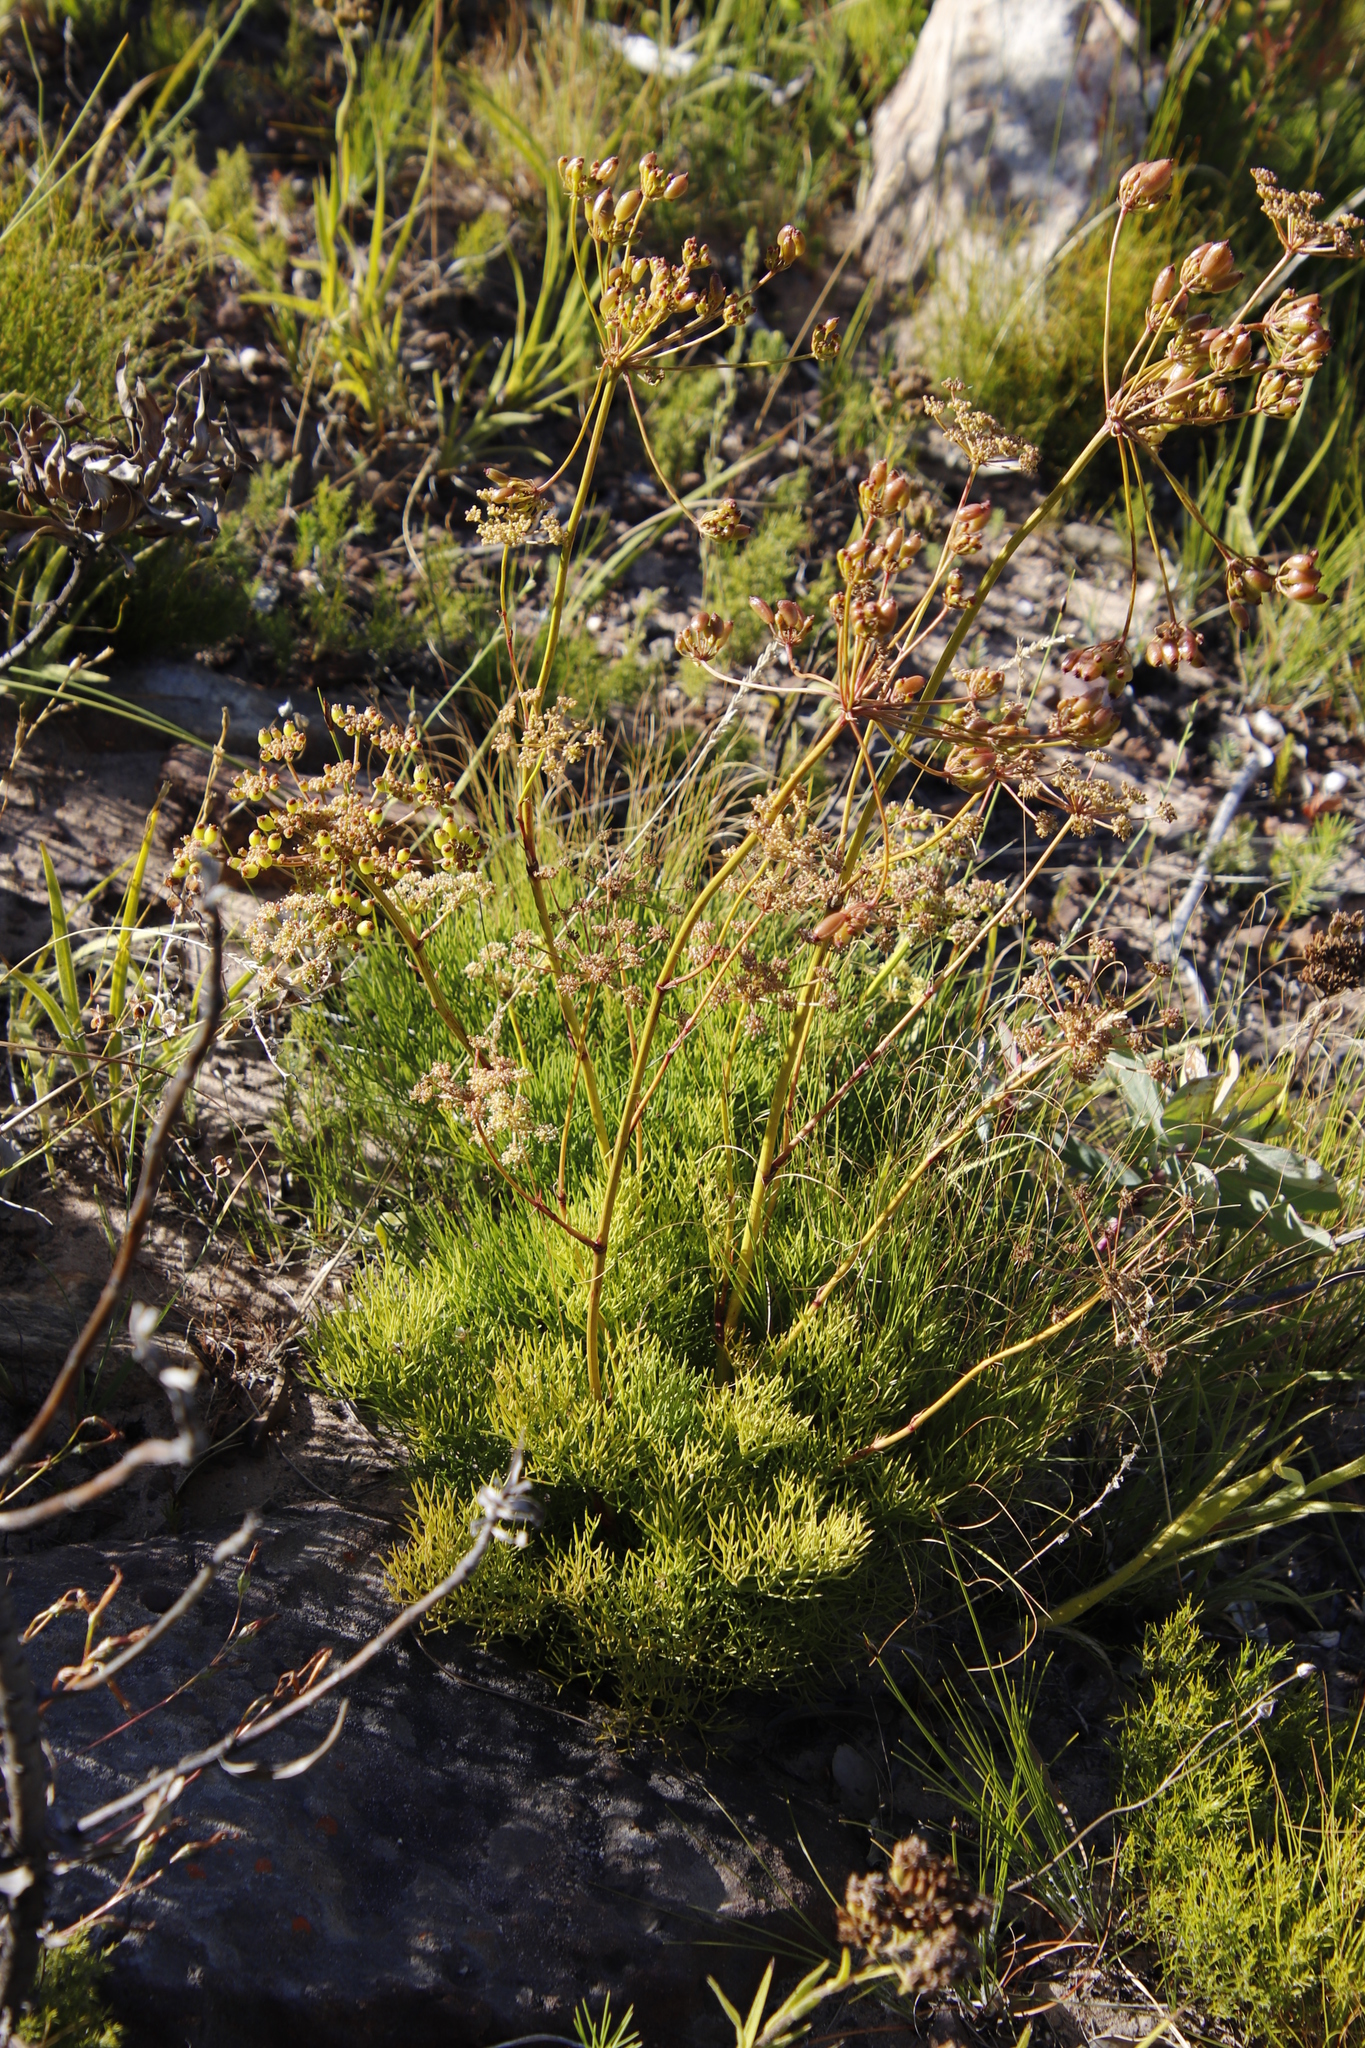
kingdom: Plantae
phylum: Tracheophyta
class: Magnoliopsida
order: Apiales
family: Apiaceae
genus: Nanobubon
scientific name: Nanobubon strictum
